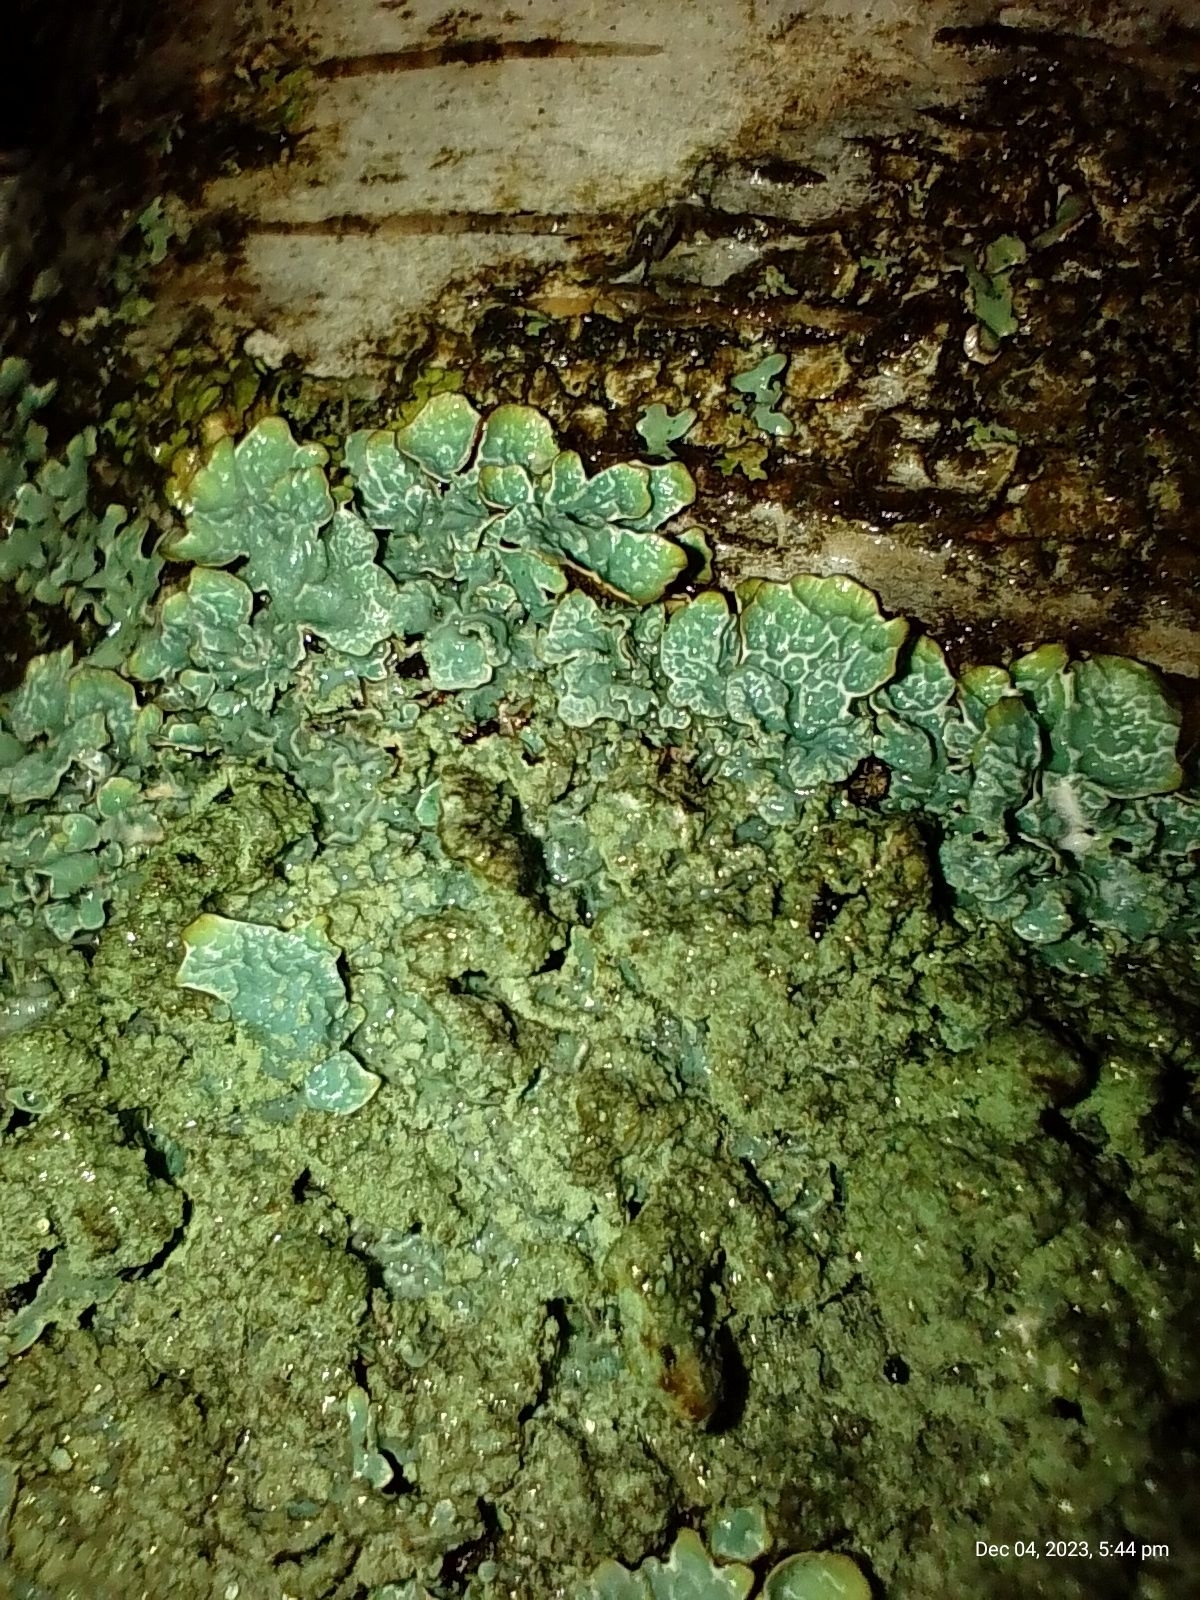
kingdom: Fungi
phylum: Ascomycota
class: Lecanoromycetes
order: Lecanorales
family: Parmeliaceae
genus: Parmelia
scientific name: Parmelia sulcata
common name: Netted shield lichen
